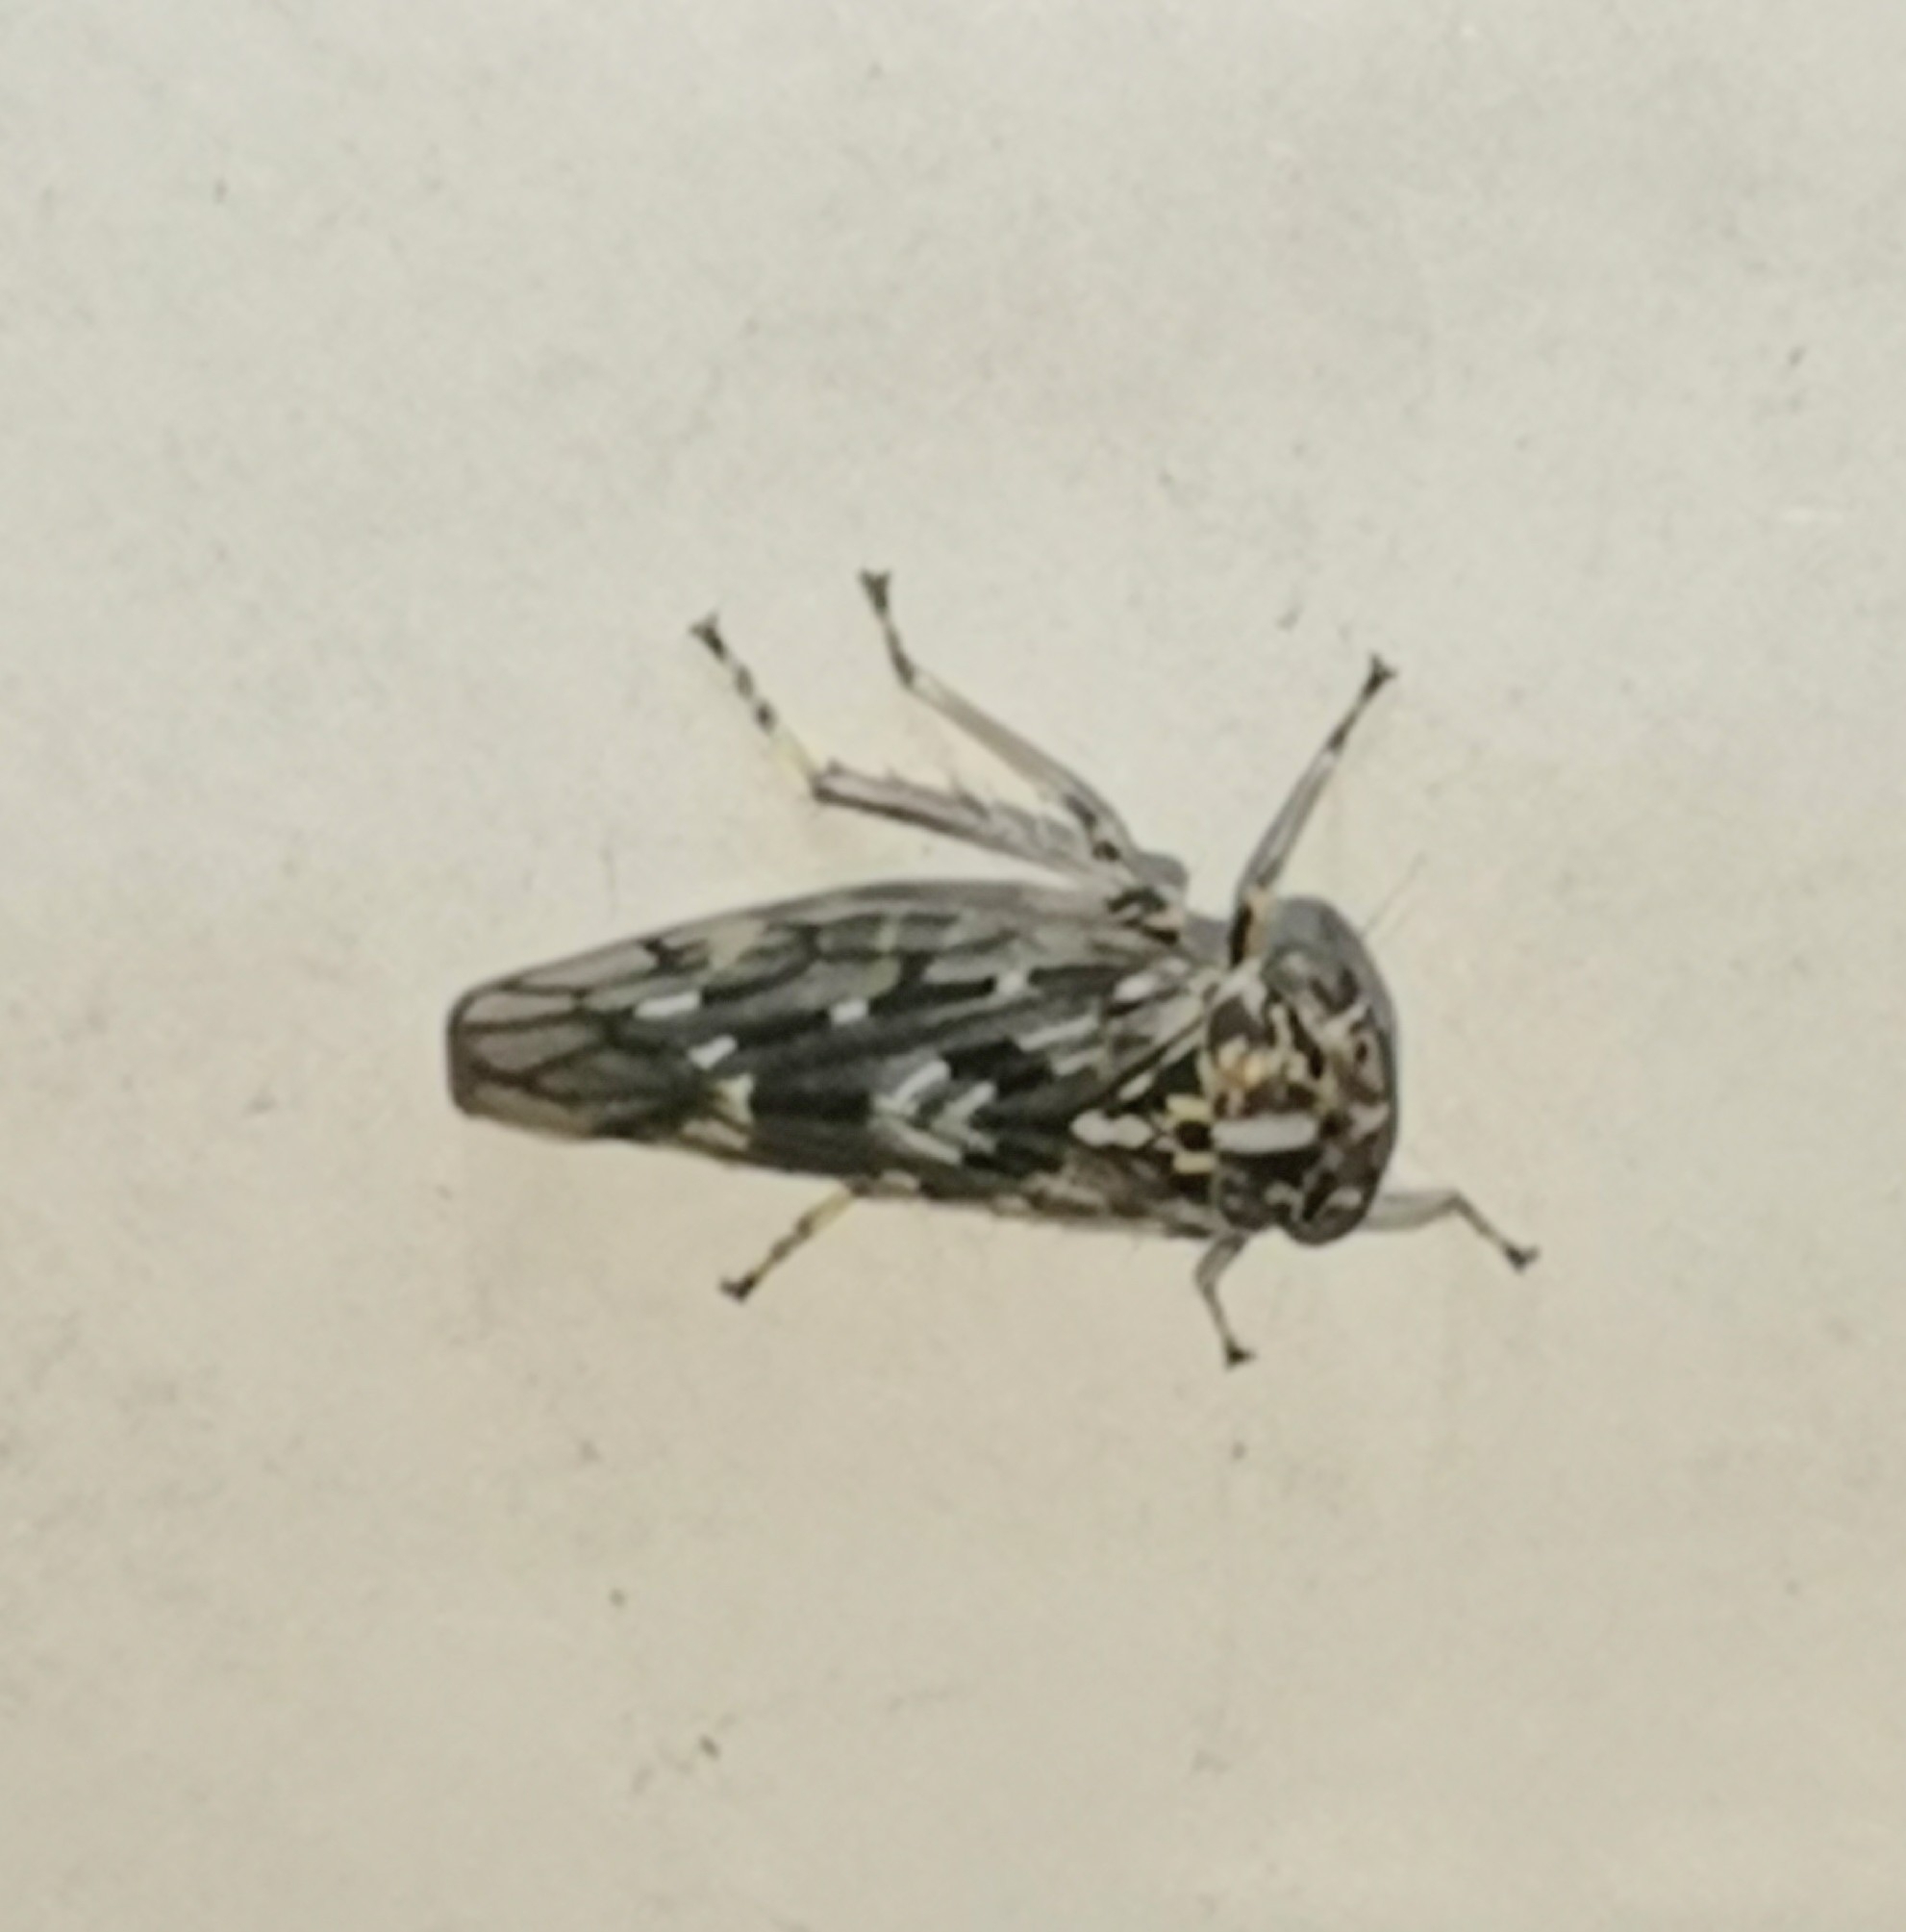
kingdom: Animalia
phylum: Arthropoda
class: Insecta
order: Hemiptera
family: Cicadellidae
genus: Metidiocerus
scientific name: Metidiocerus poecilus
